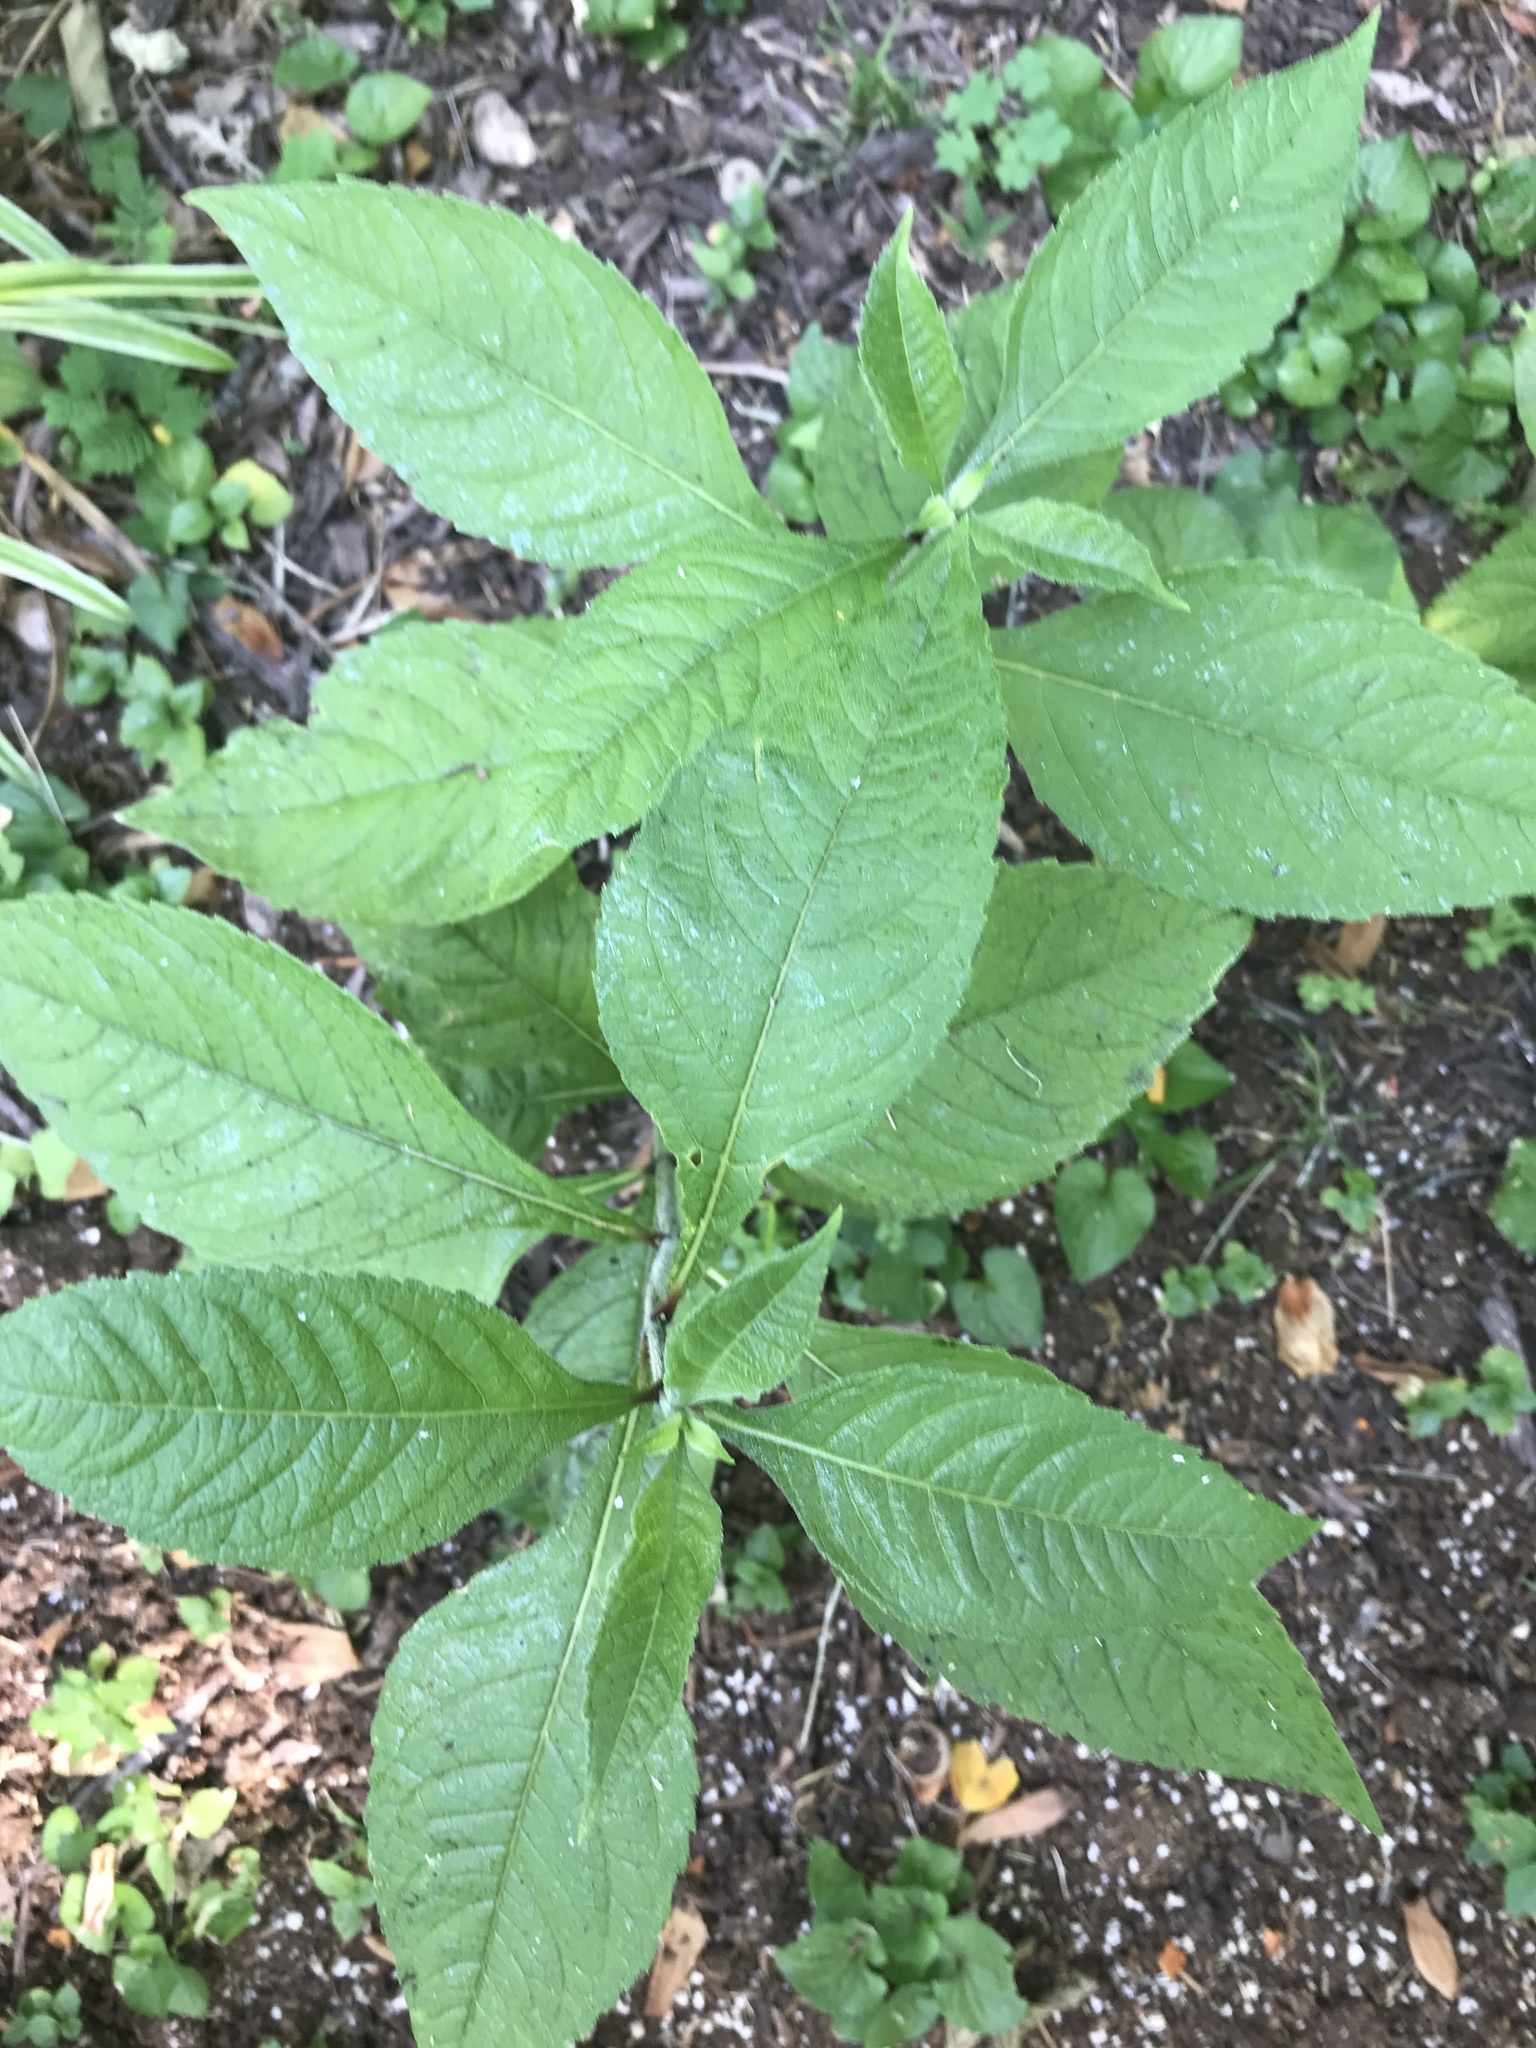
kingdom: Plantae
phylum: Tracheophyta
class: Magnoliopsida
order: Asterales
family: Asteraceae
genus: Verbesina
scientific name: Verbesina alternifolia
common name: Wingstem
